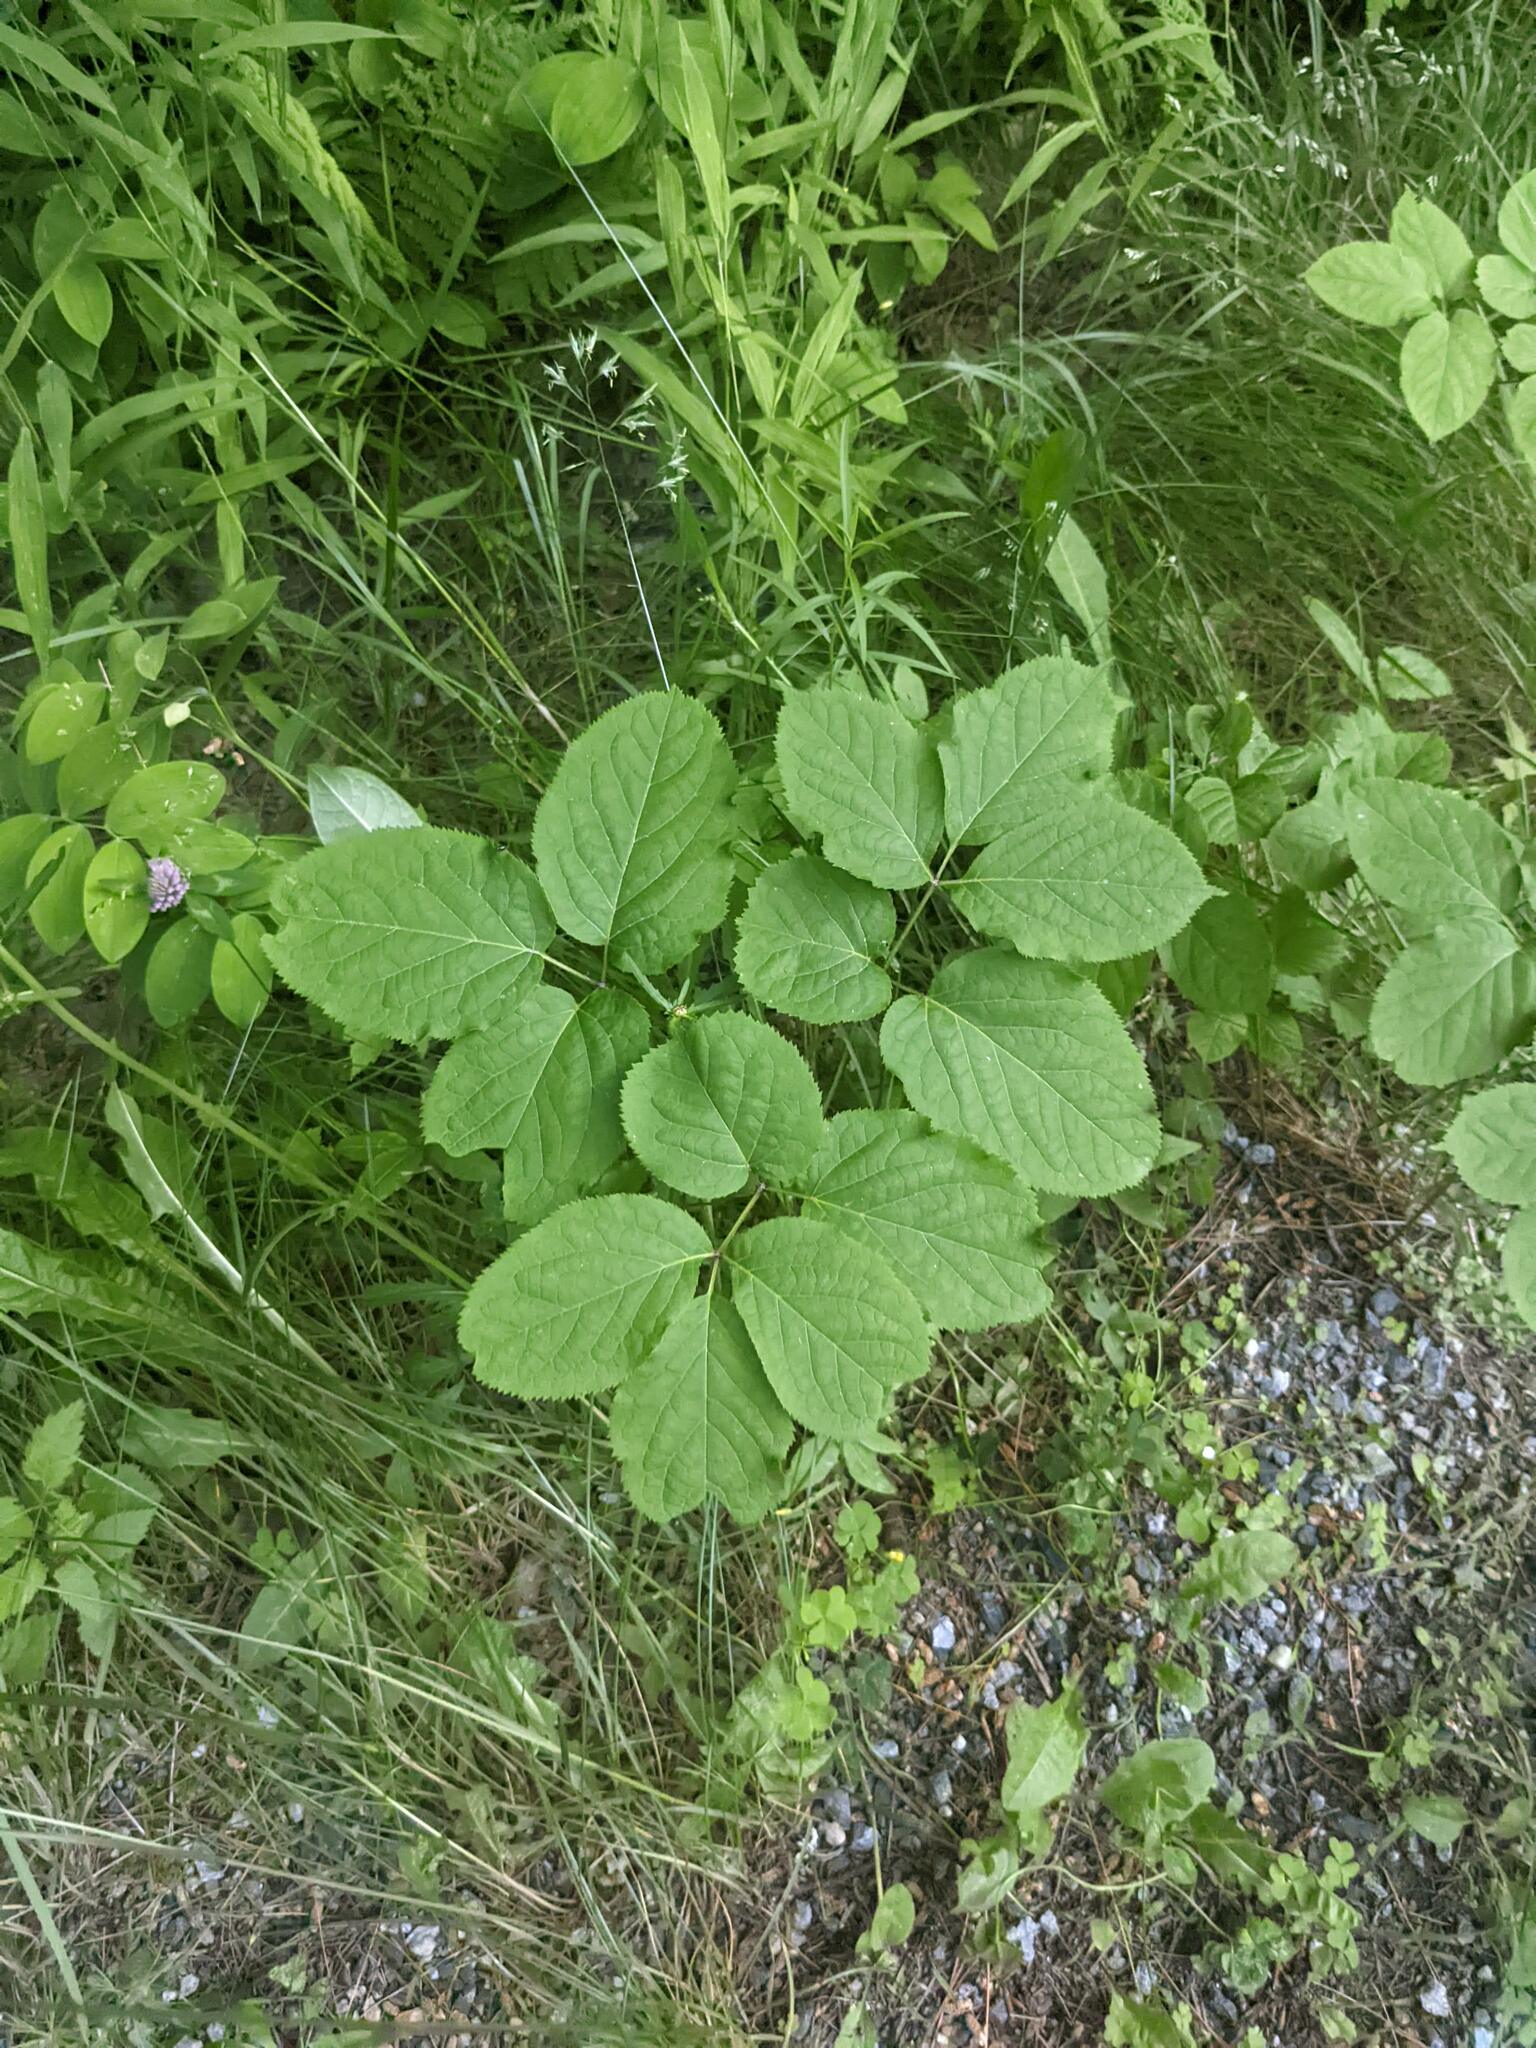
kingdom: Plantae
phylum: Tracheophyta
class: Magnoliopsida
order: Apiales
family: Araliaceae
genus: Aralia
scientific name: Aralia nudicaulis
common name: Wild sarsaparilla
